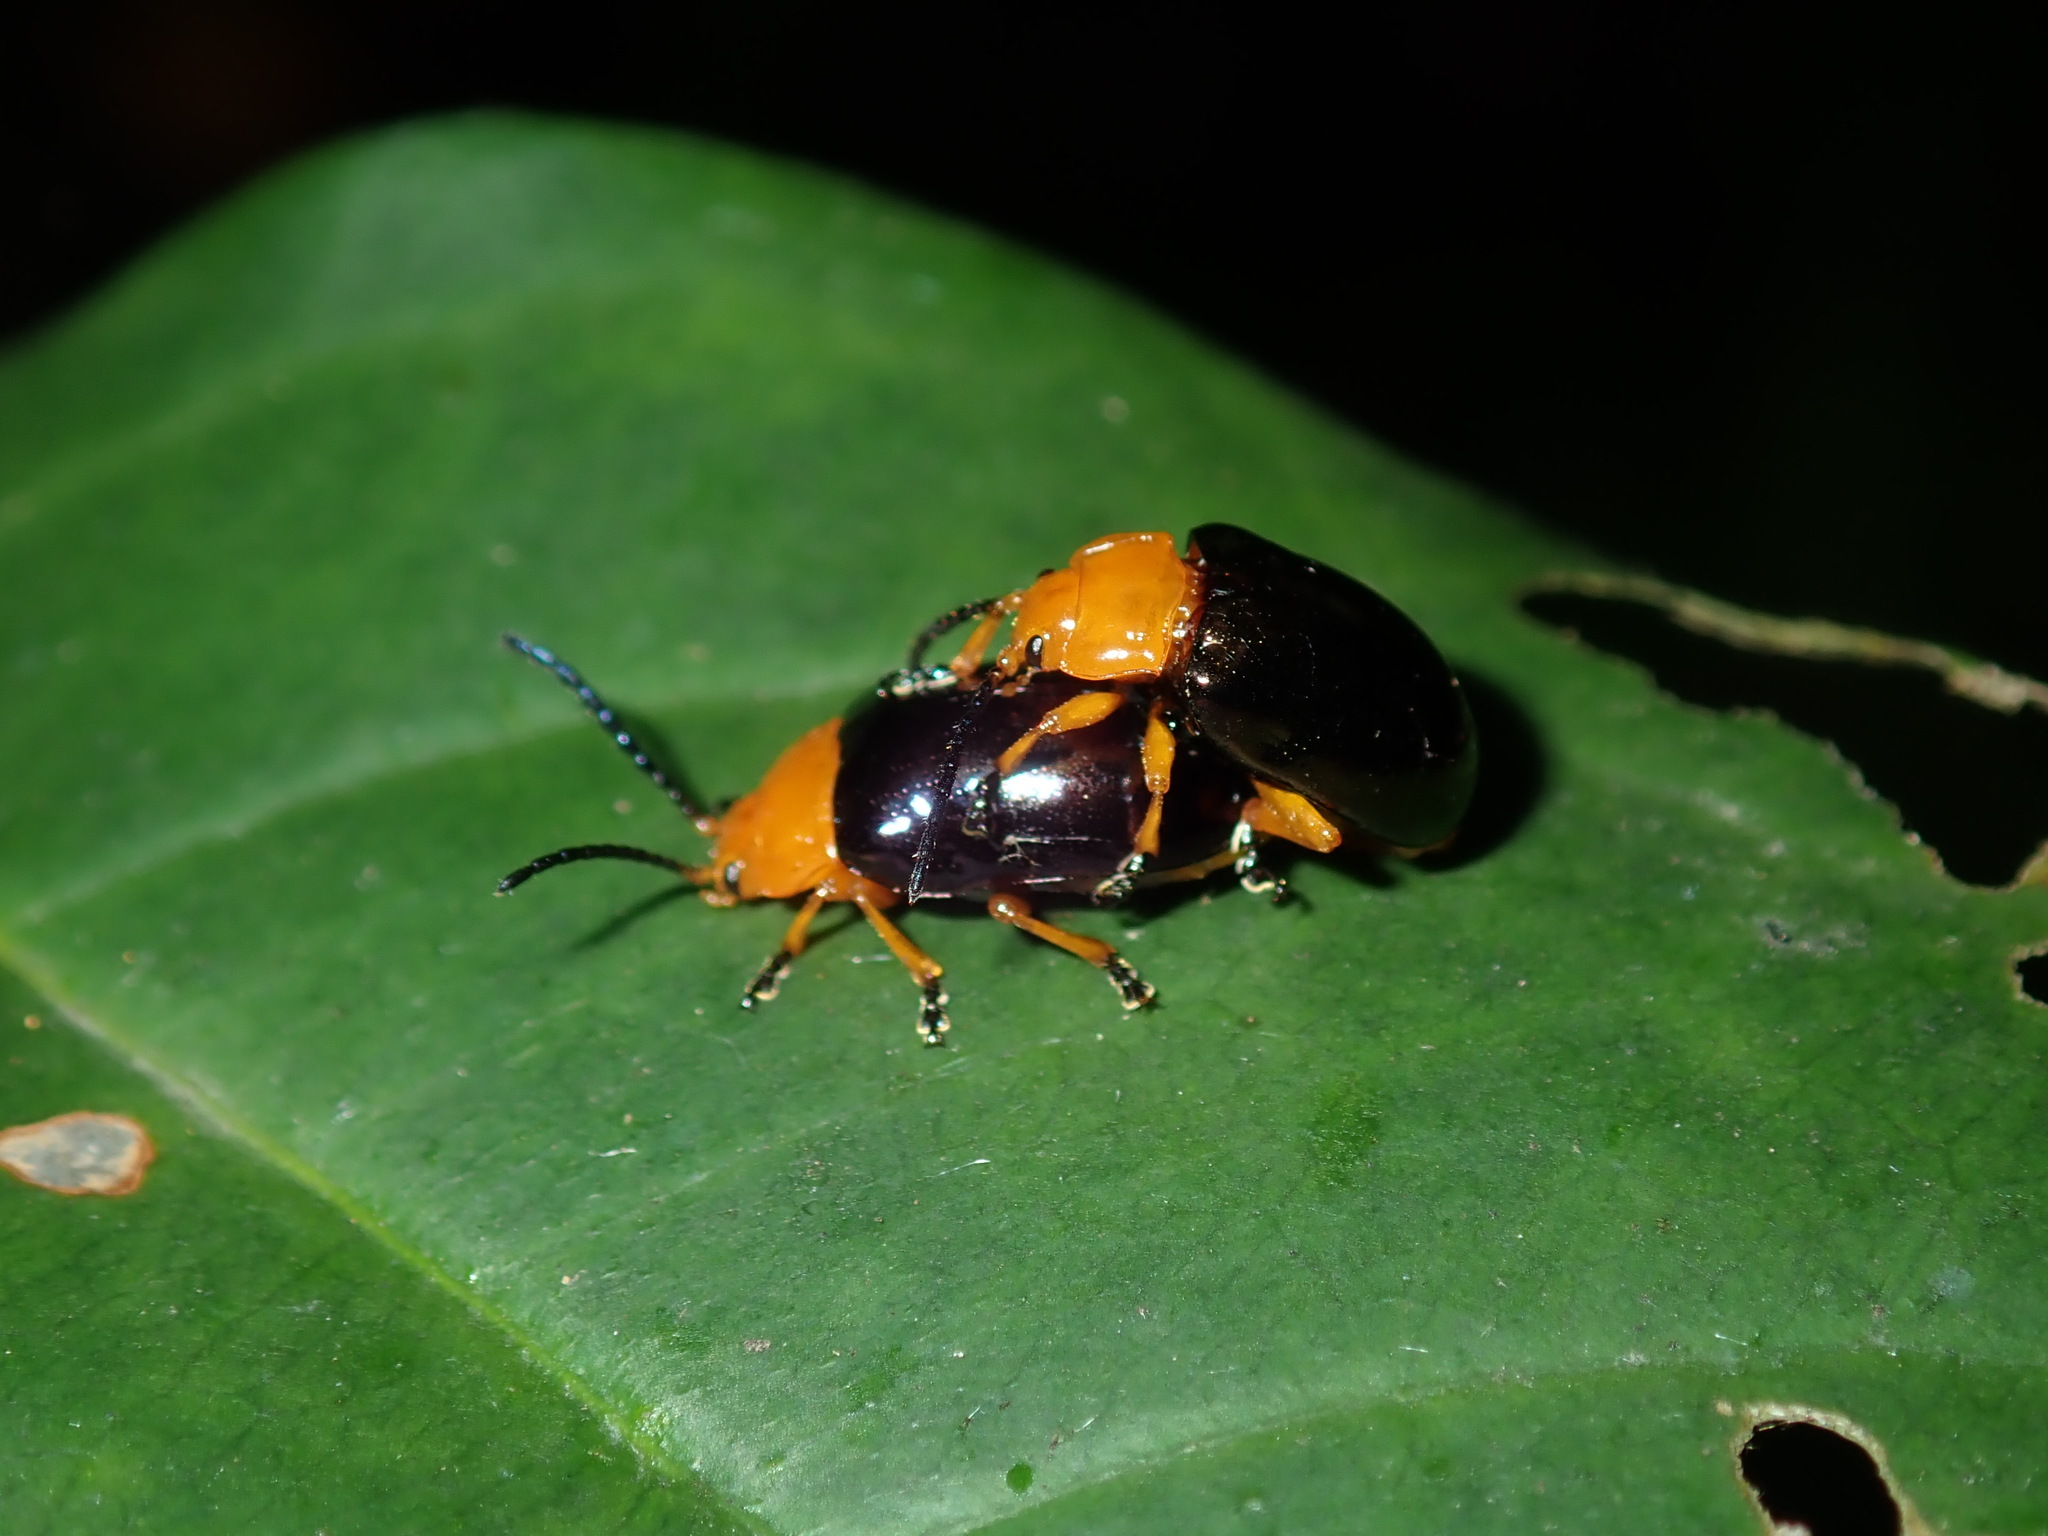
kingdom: Animalia
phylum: Arthropoda
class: Insecta
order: Coleoptera
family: Chrysomelidae
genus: Lamprolina
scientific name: Lamprolina
